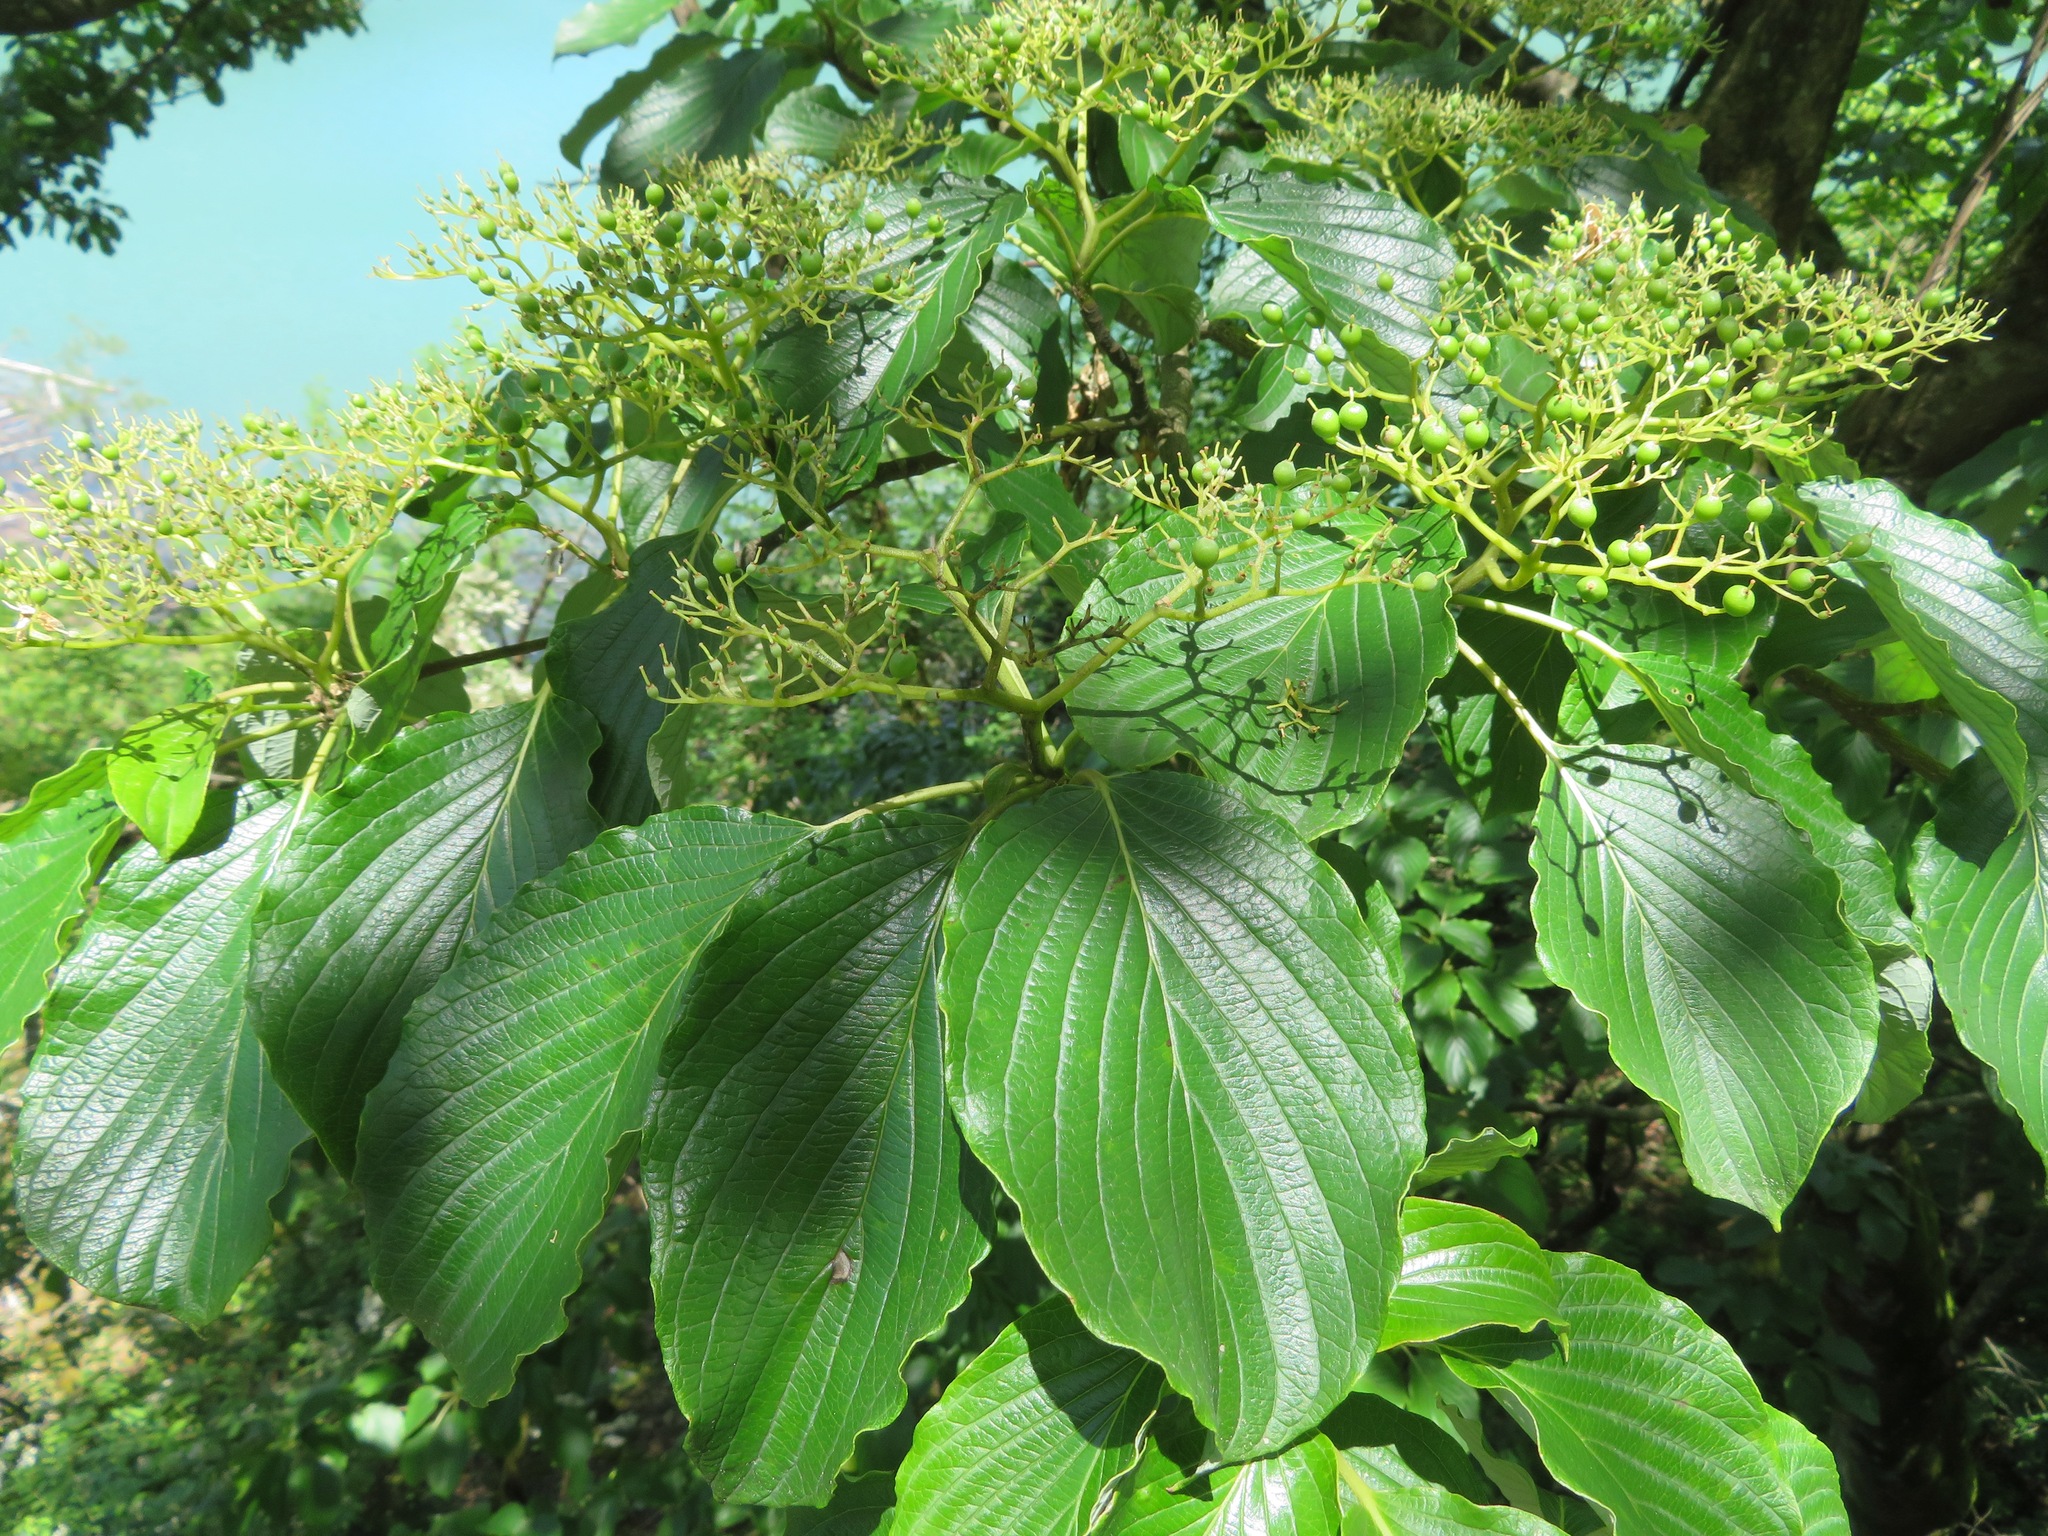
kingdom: Plantae
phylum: Tracheophyta
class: Magnoliopsida
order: Cornales
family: Cornaceae
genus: Cornus
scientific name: Cornus controversa
